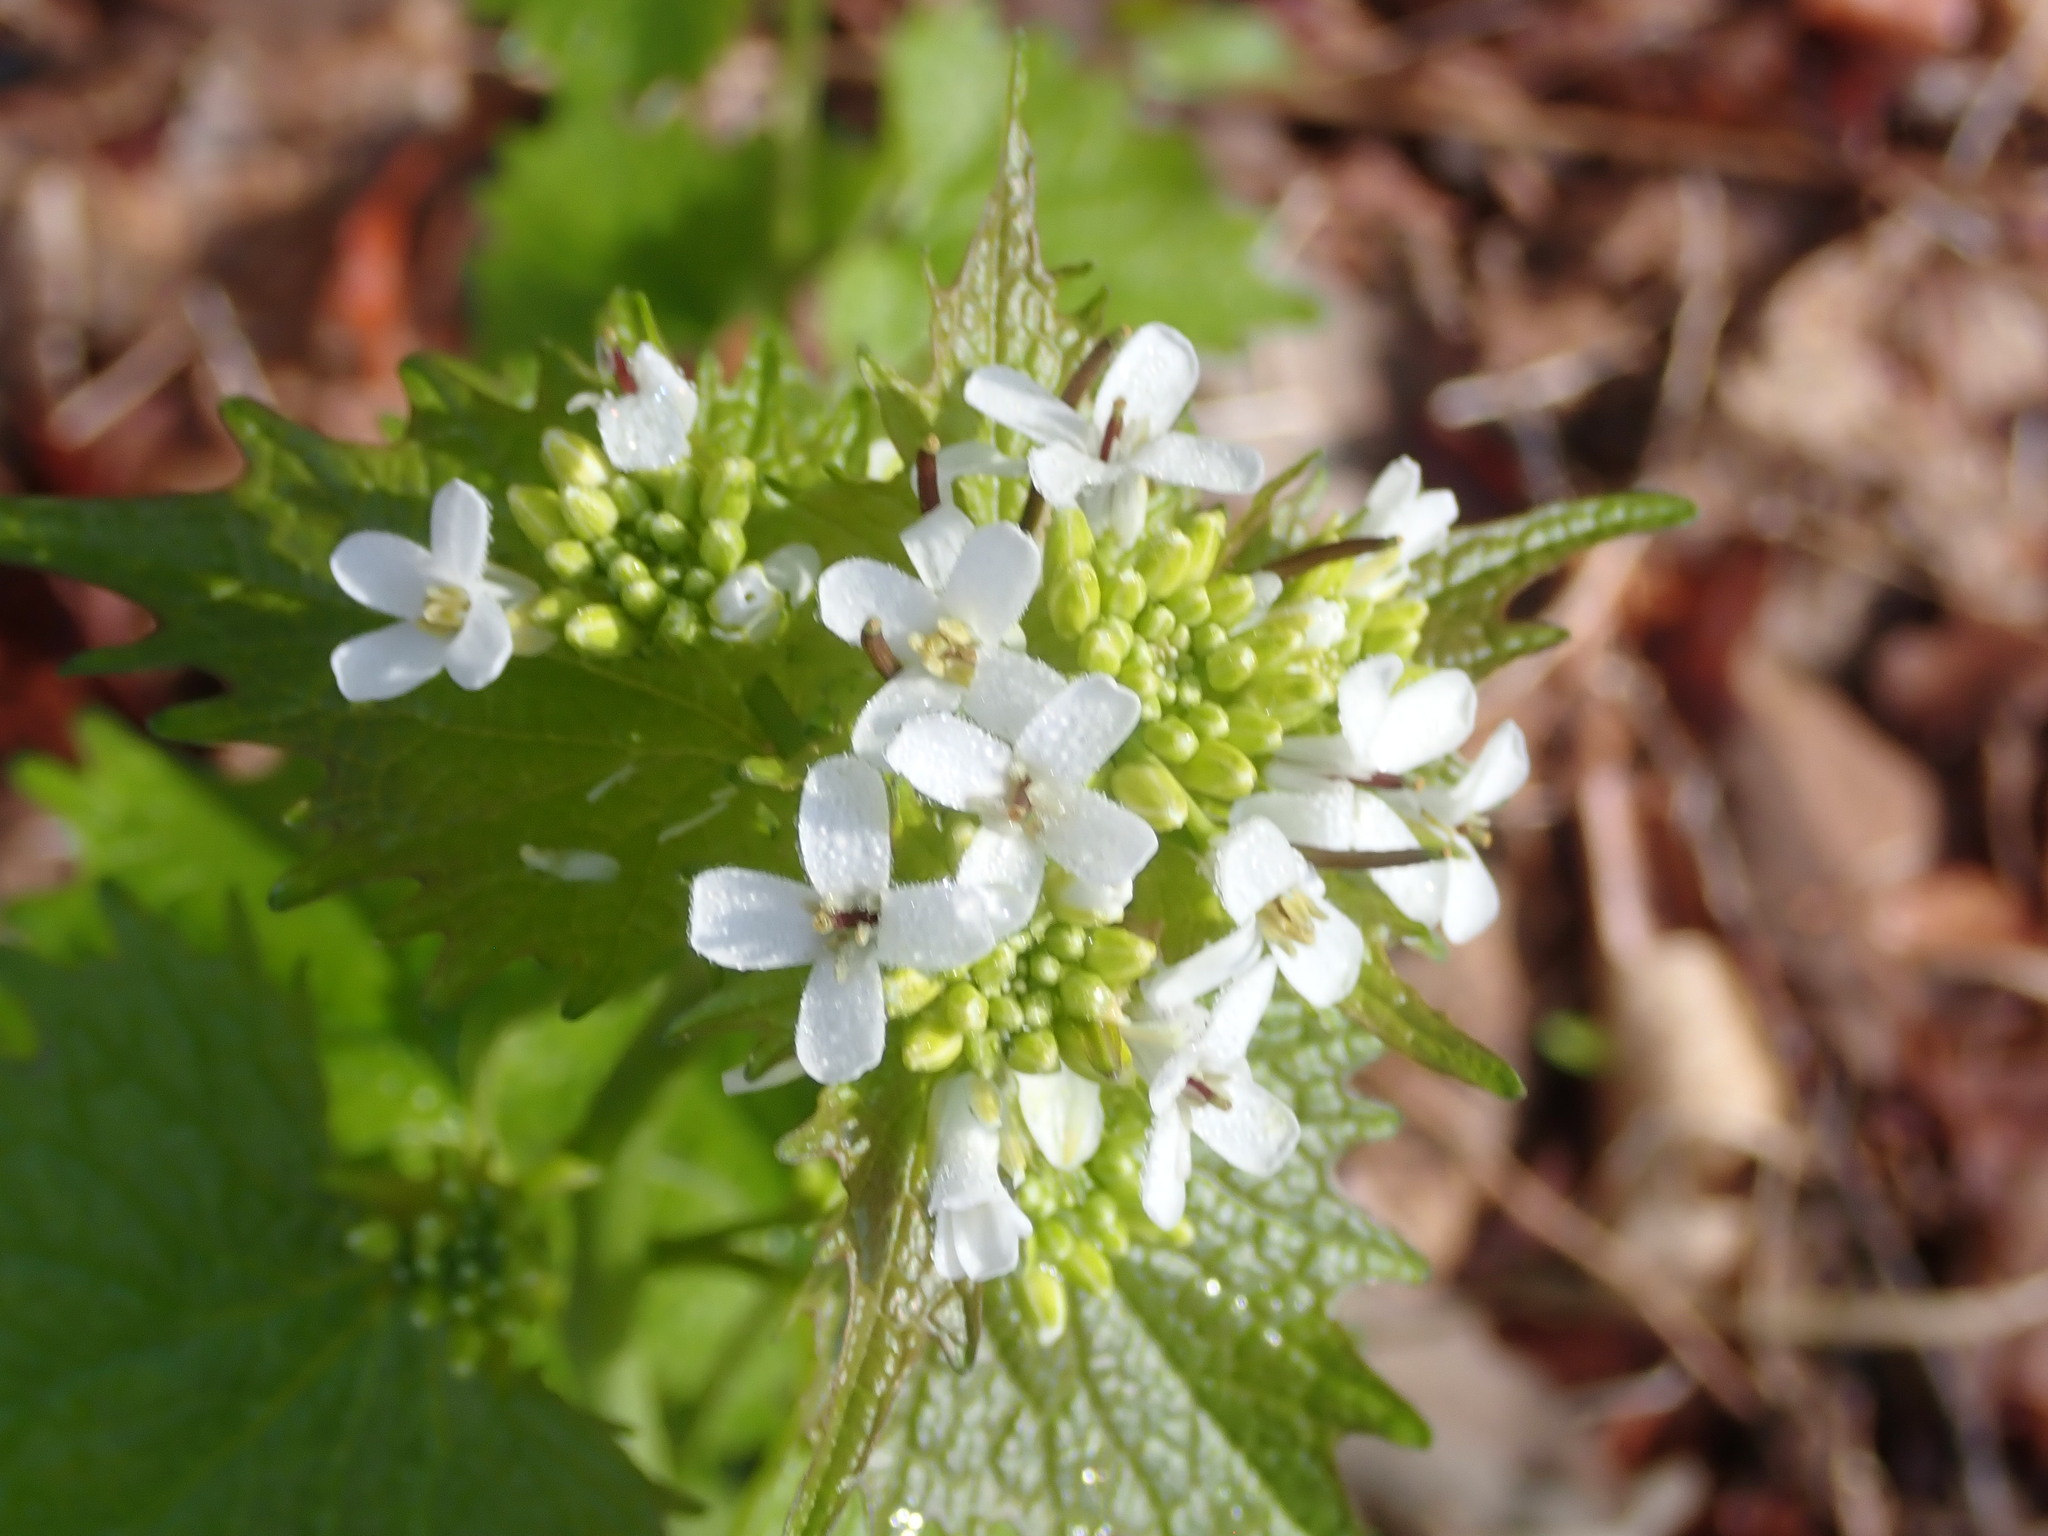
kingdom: Plantae
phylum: Tracheophyta
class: Magnoliopsida
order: Brassicales
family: Brassicaceae
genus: Alliaria
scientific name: Alliaria petiolata
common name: Garlic mustard
